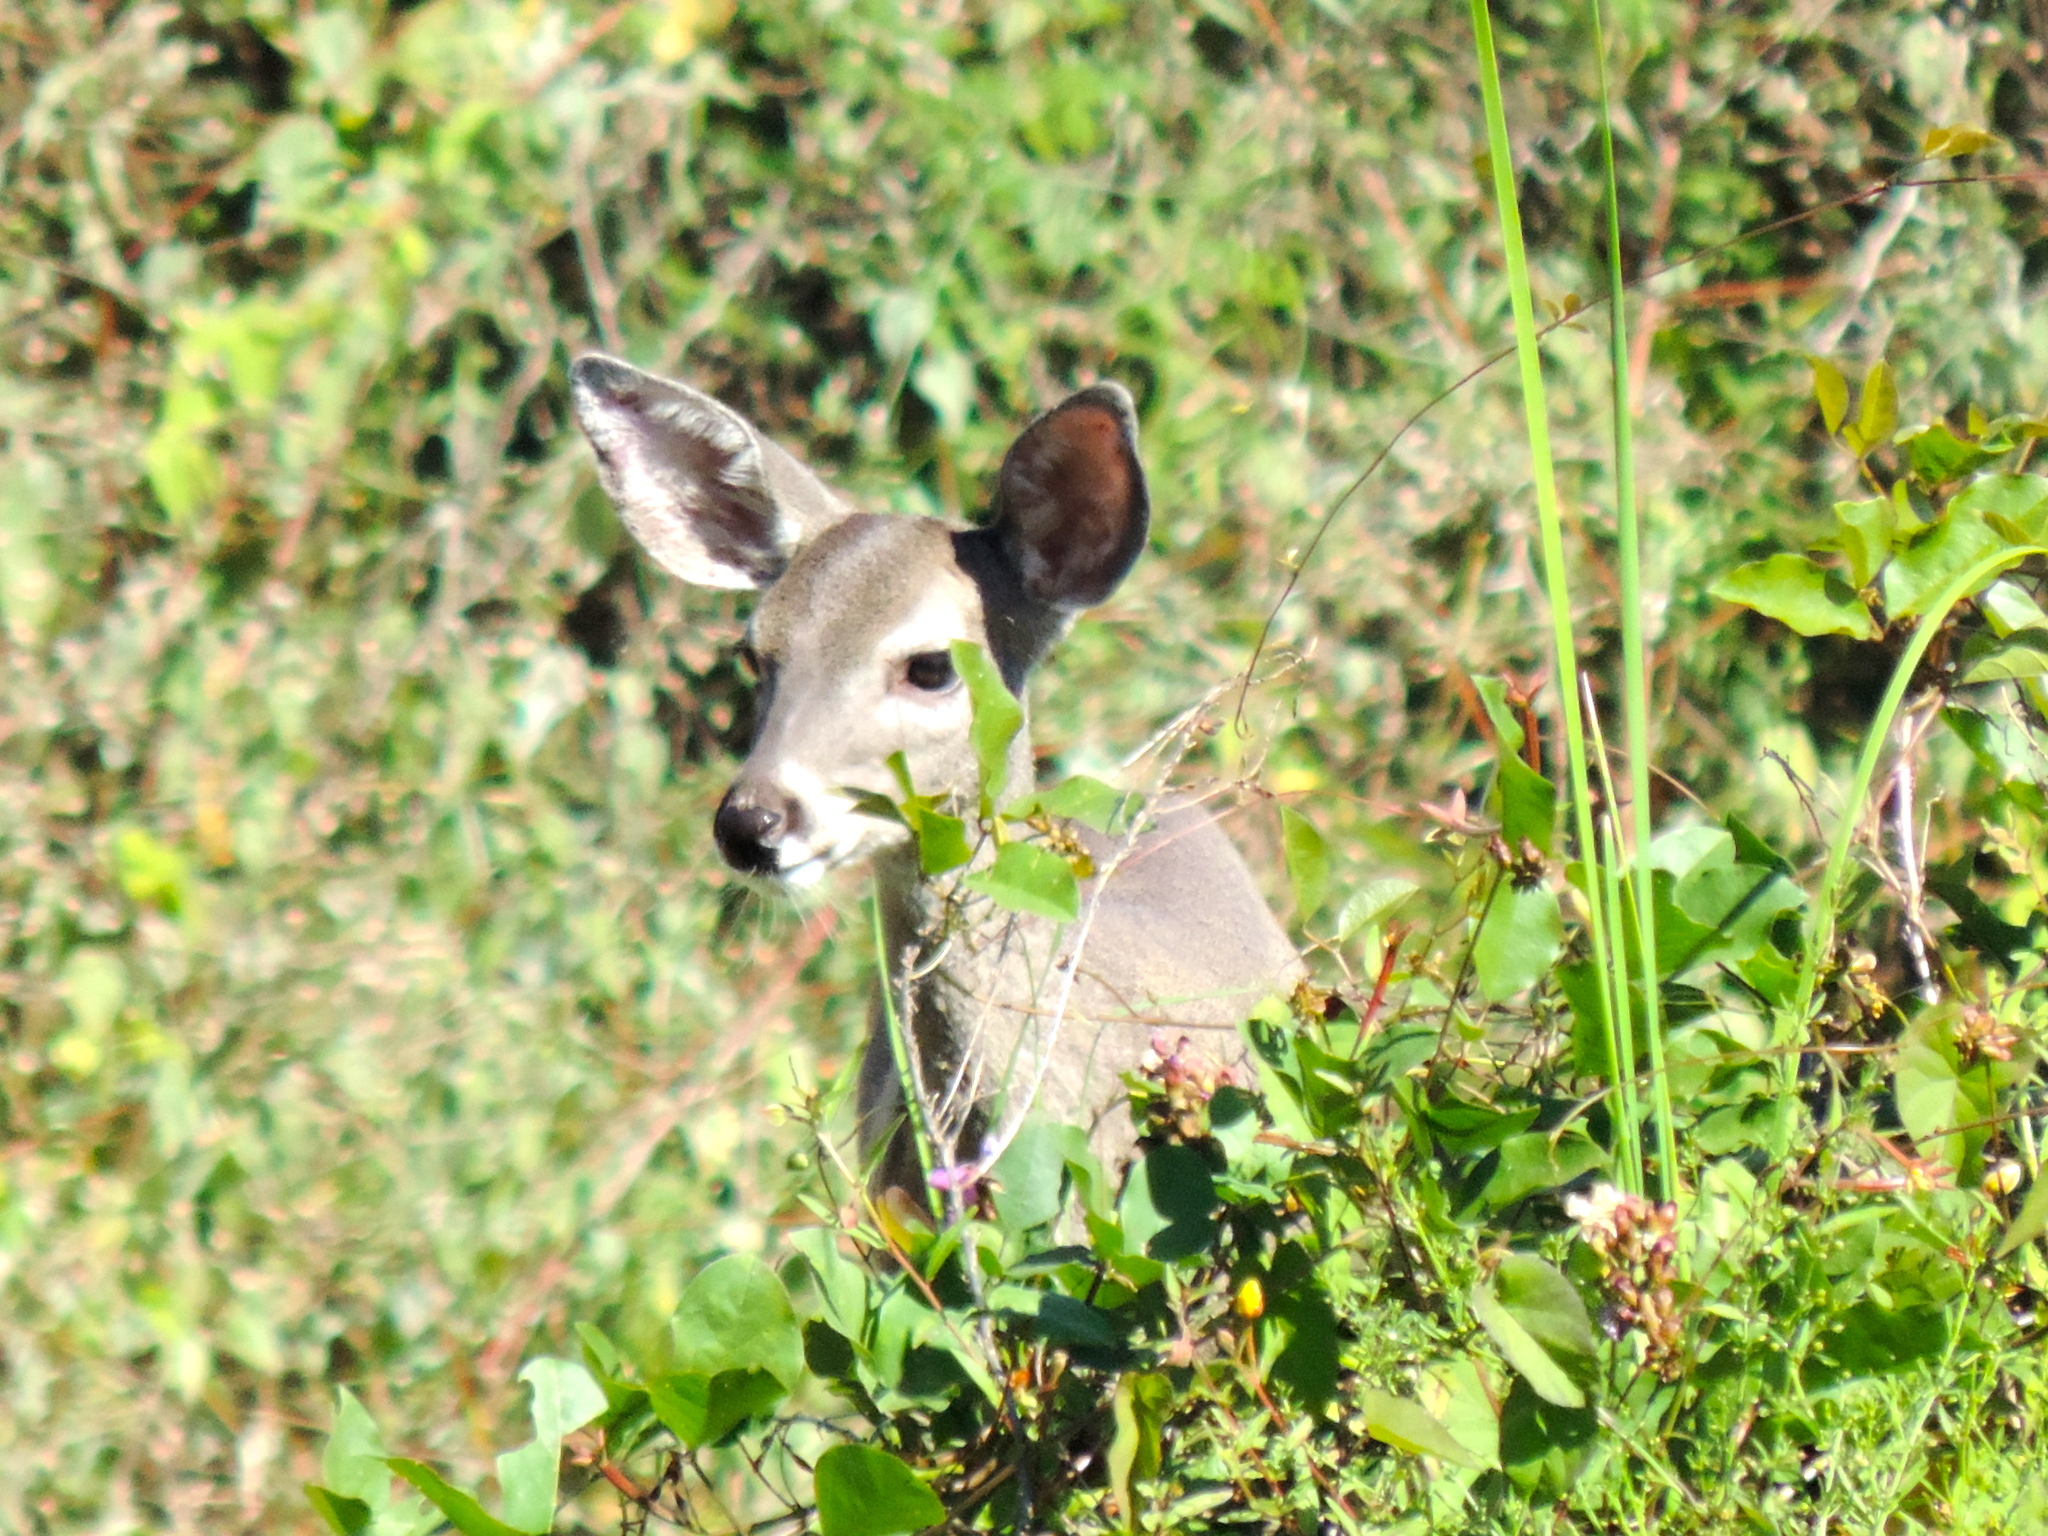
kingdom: Animalia
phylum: Chordata
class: Mammalia
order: Artiodactyla
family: Cervidae
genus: Odocoileus
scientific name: Odocoileus virginianus
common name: White-tailed deer
